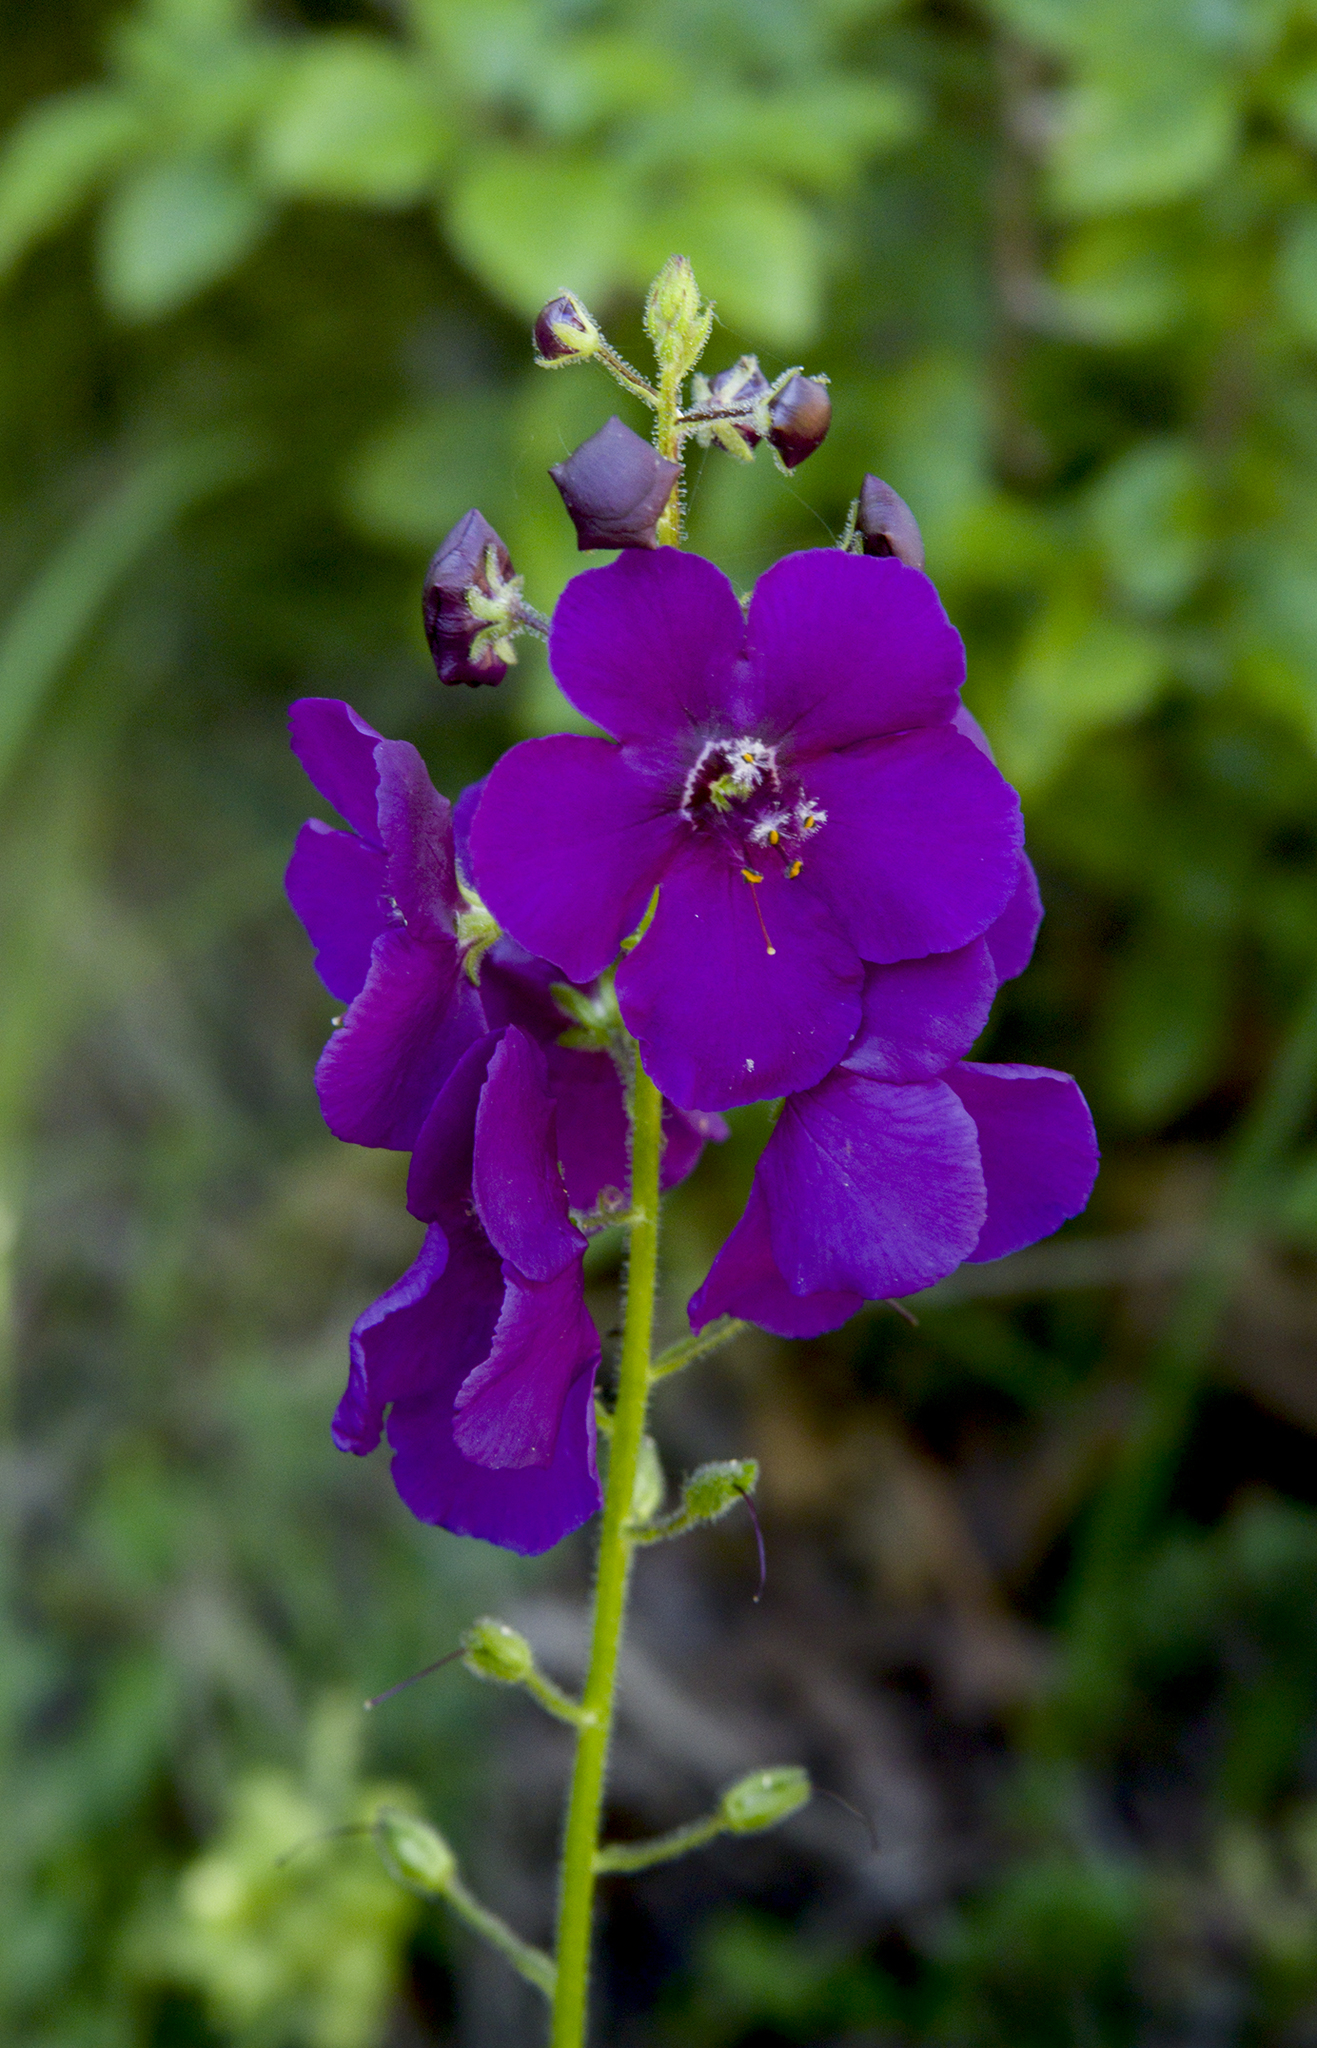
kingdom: Plantae
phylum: Tracheophyta
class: Magnoliopsida
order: Lamiales
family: Scrophulariaceae
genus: Verbascum
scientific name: Verbascum phoeniceum
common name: Purple mullein
